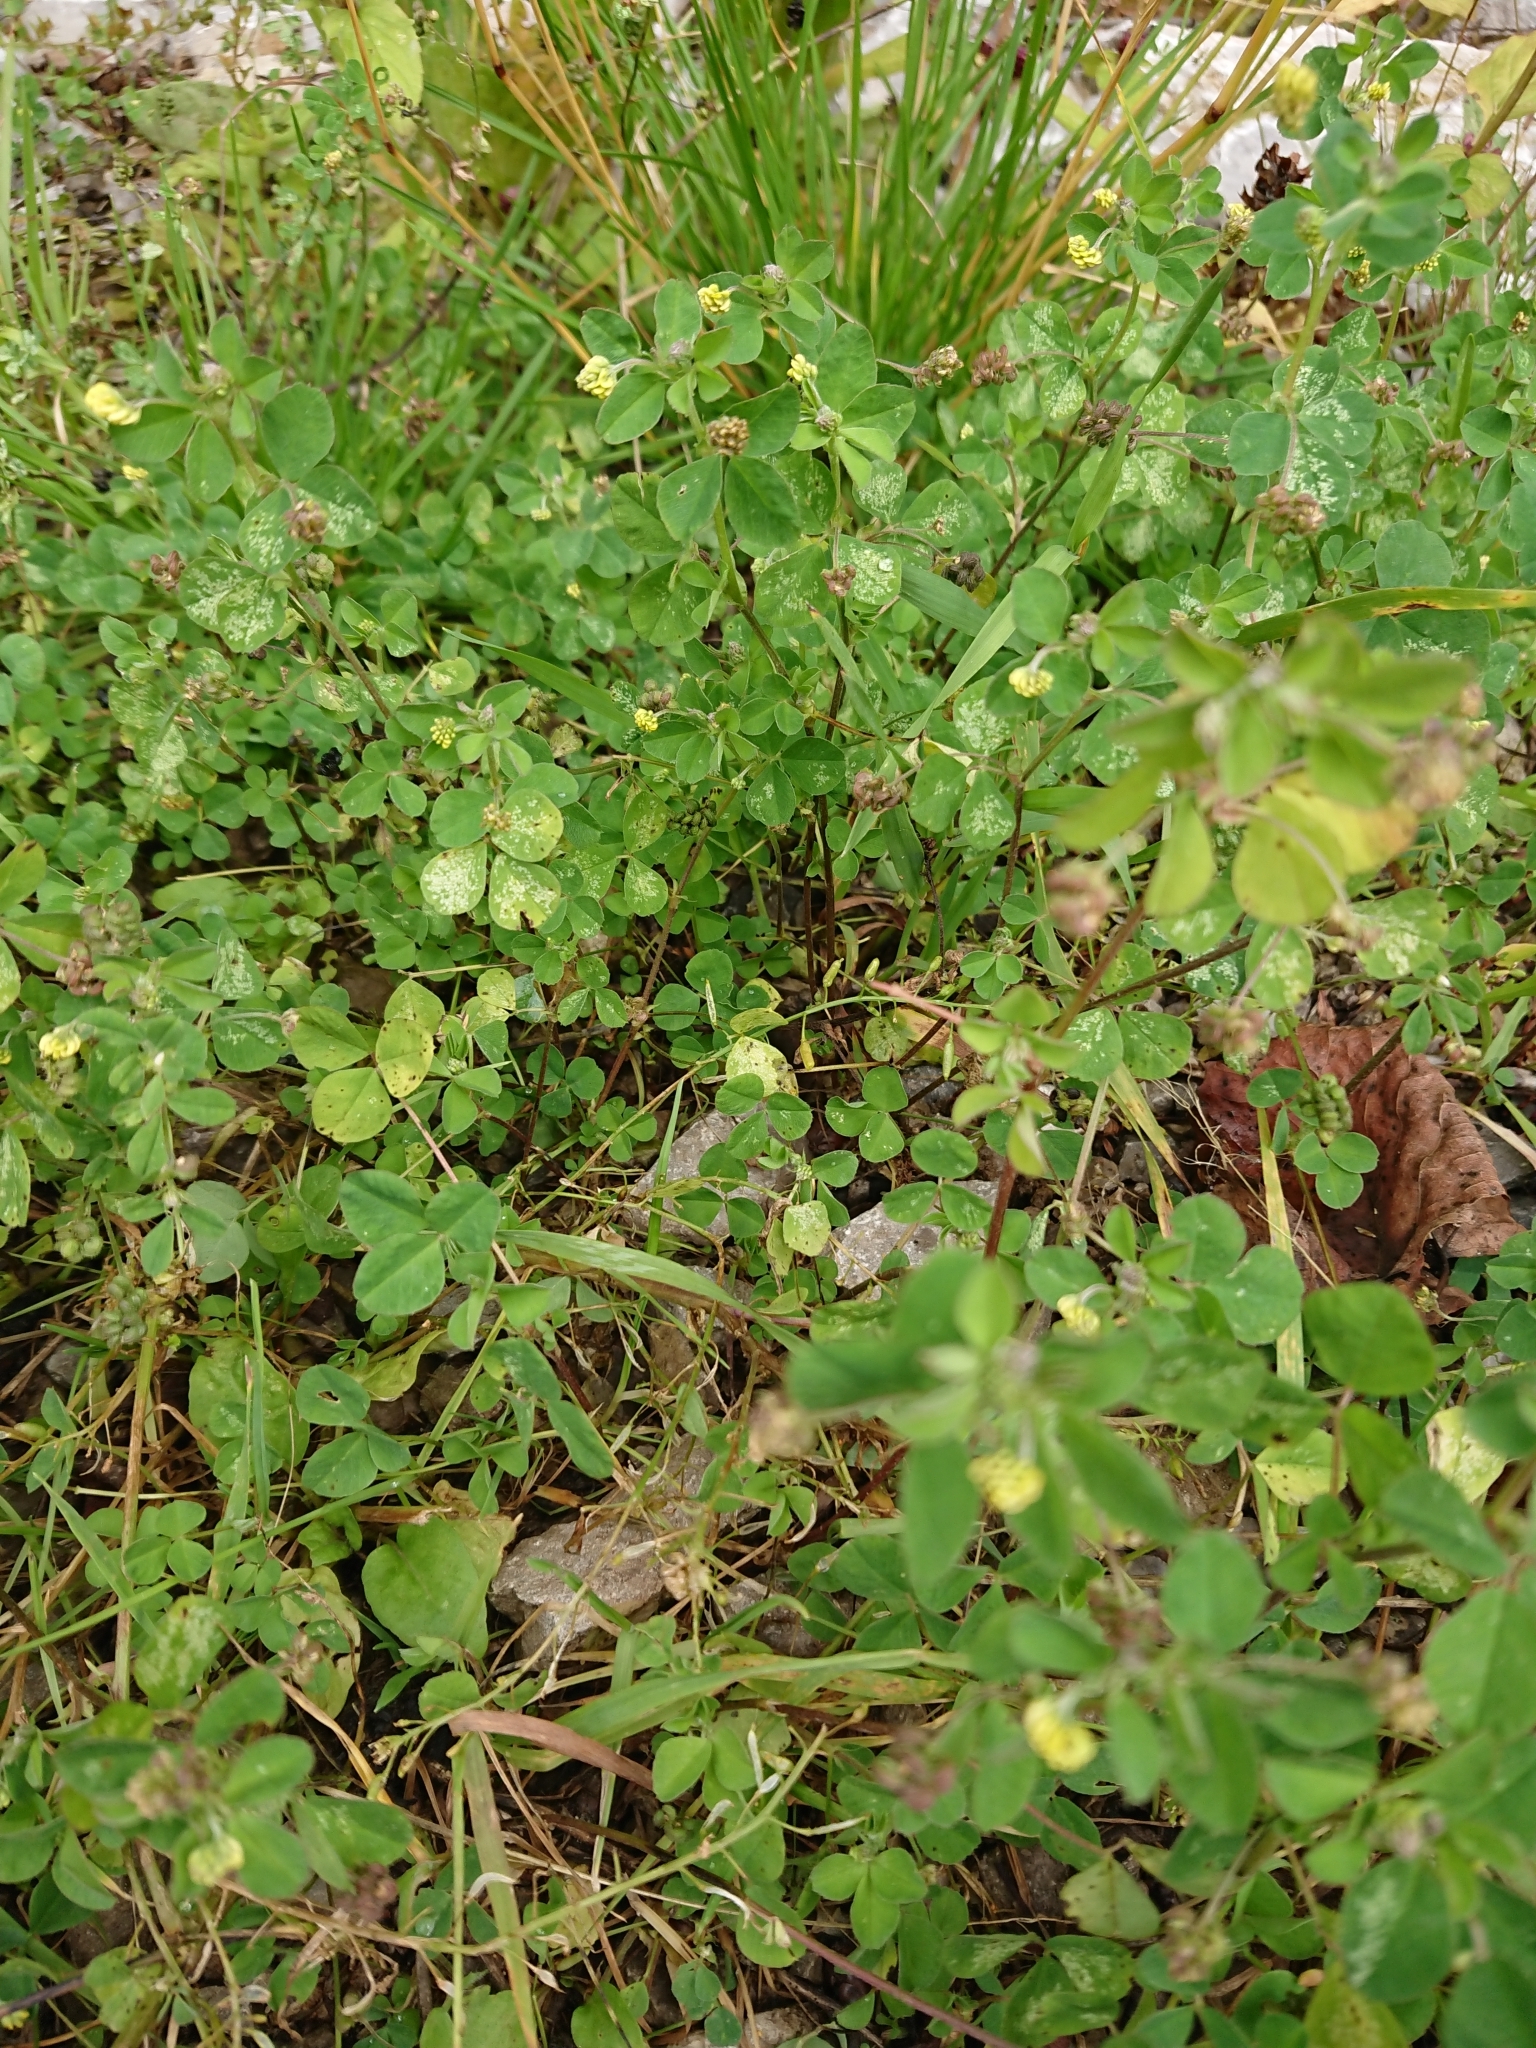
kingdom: Plantae
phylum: Tracheophyta
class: Magnoliopsida
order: Fabales
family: Fabaceae
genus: Medicago
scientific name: Medicago lupulina
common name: Black medick
